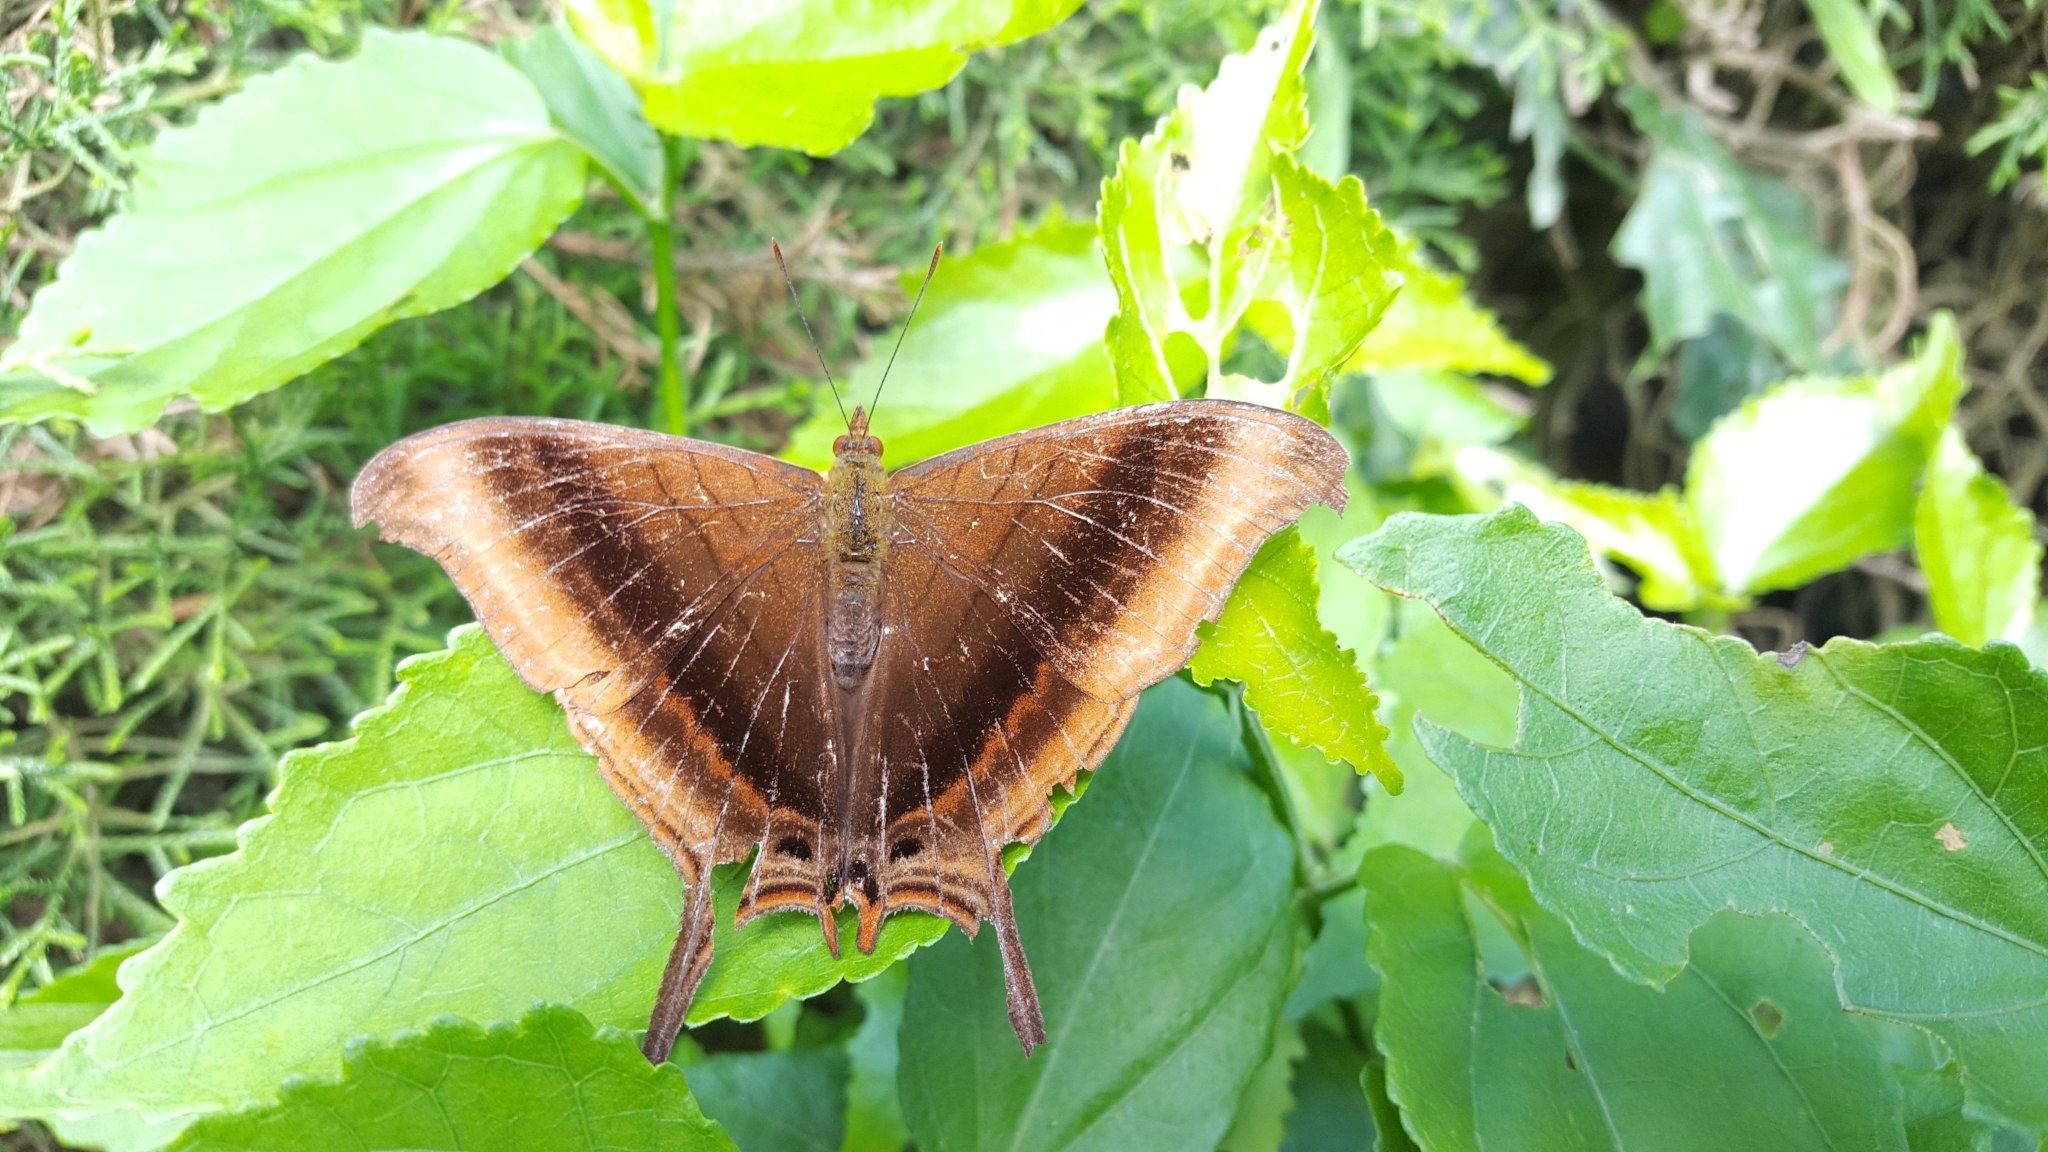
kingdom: Animalia
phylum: Arthropoda
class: Insecta
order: Lepidoptera
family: Nymphalidae
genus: Marpesia
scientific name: Marpesia zerynthia
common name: Waiter daggerwing
